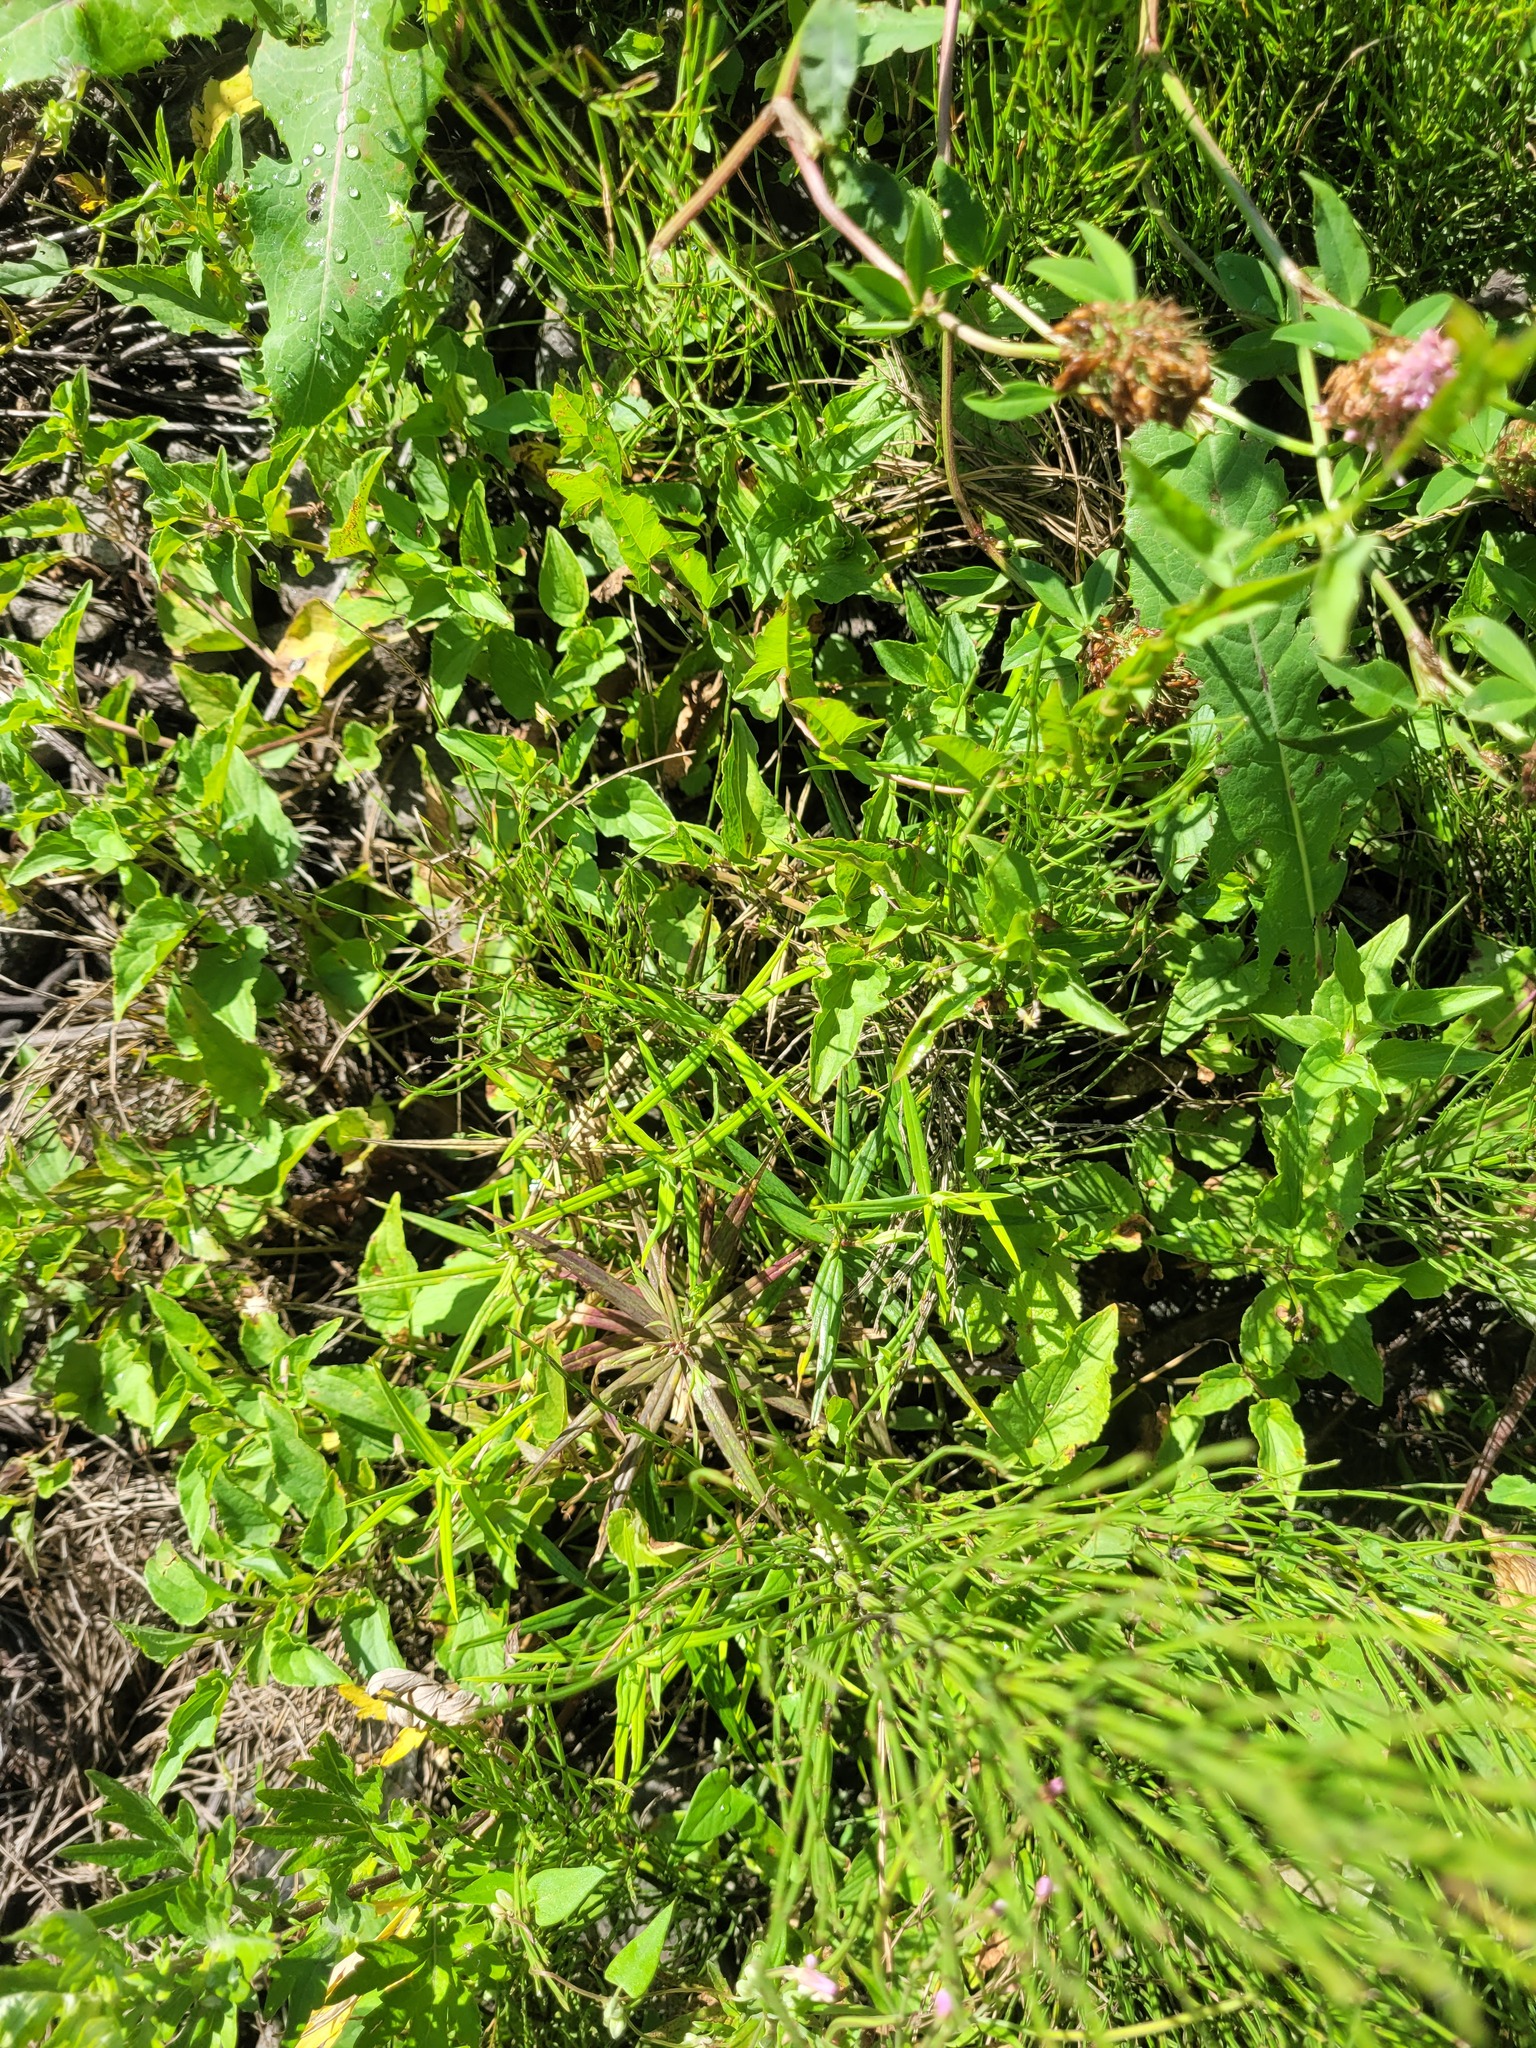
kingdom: Plantae
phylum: Tracheophyta
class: Magnoliopsida
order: Malpighiales
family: Violaceae
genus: Viola
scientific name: Viola
